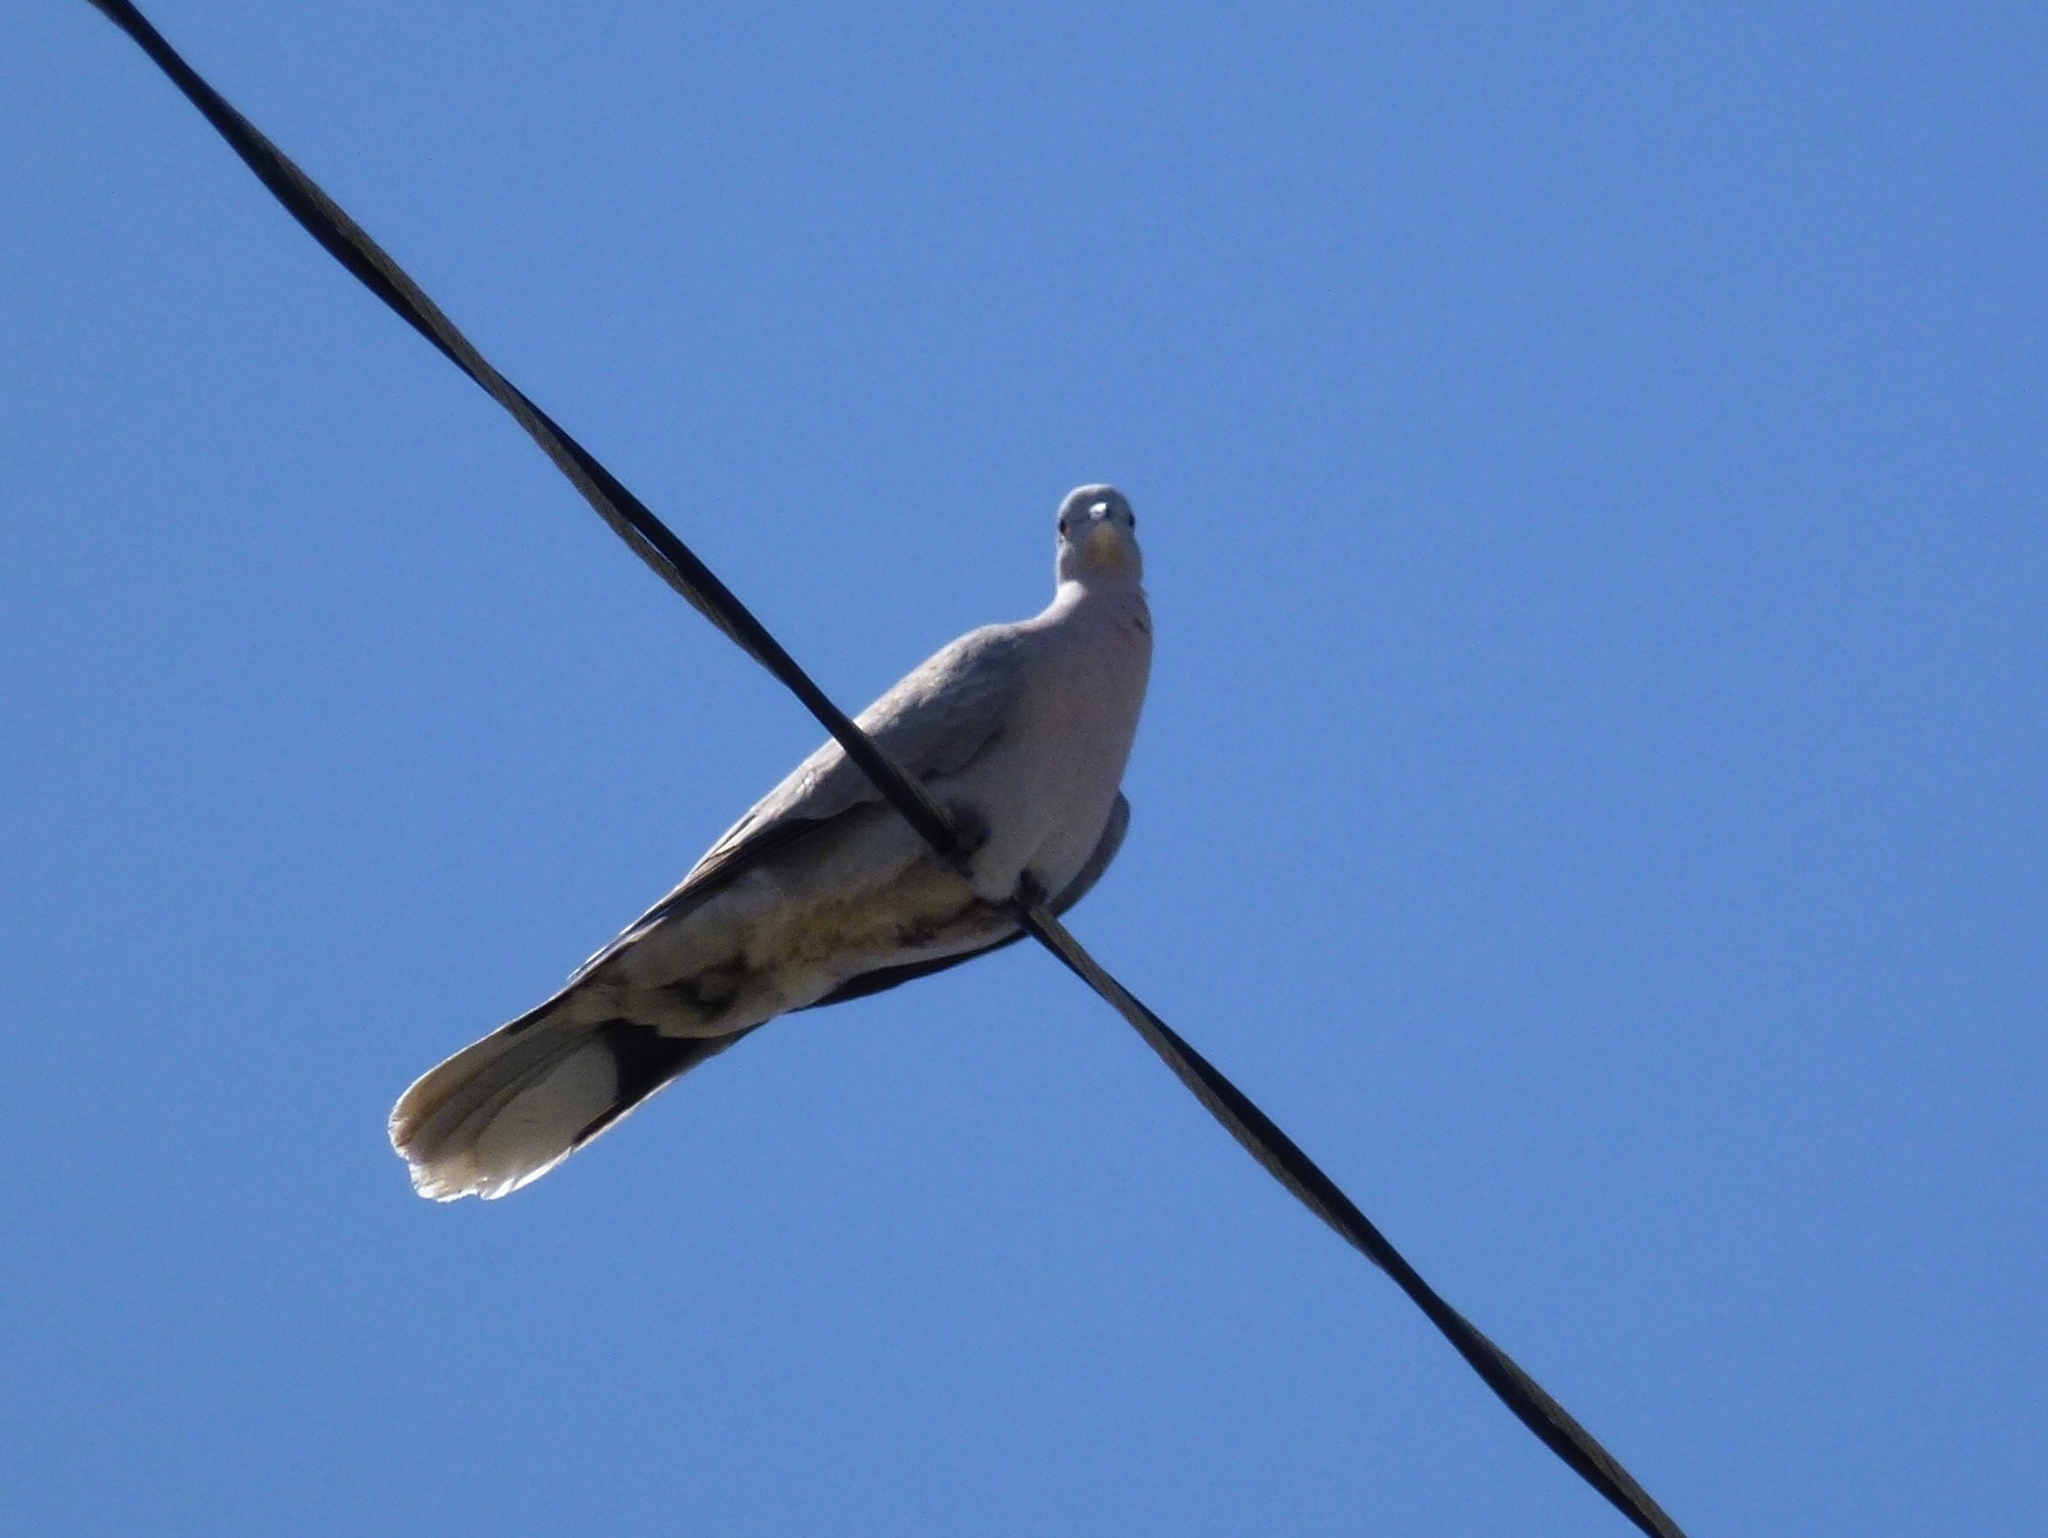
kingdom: Animalia
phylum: Chordata
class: Aves
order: Columbiformes
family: Columbidae
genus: Streptopelia
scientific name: Streptopelia decaocto
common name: Eurasian collared dove
